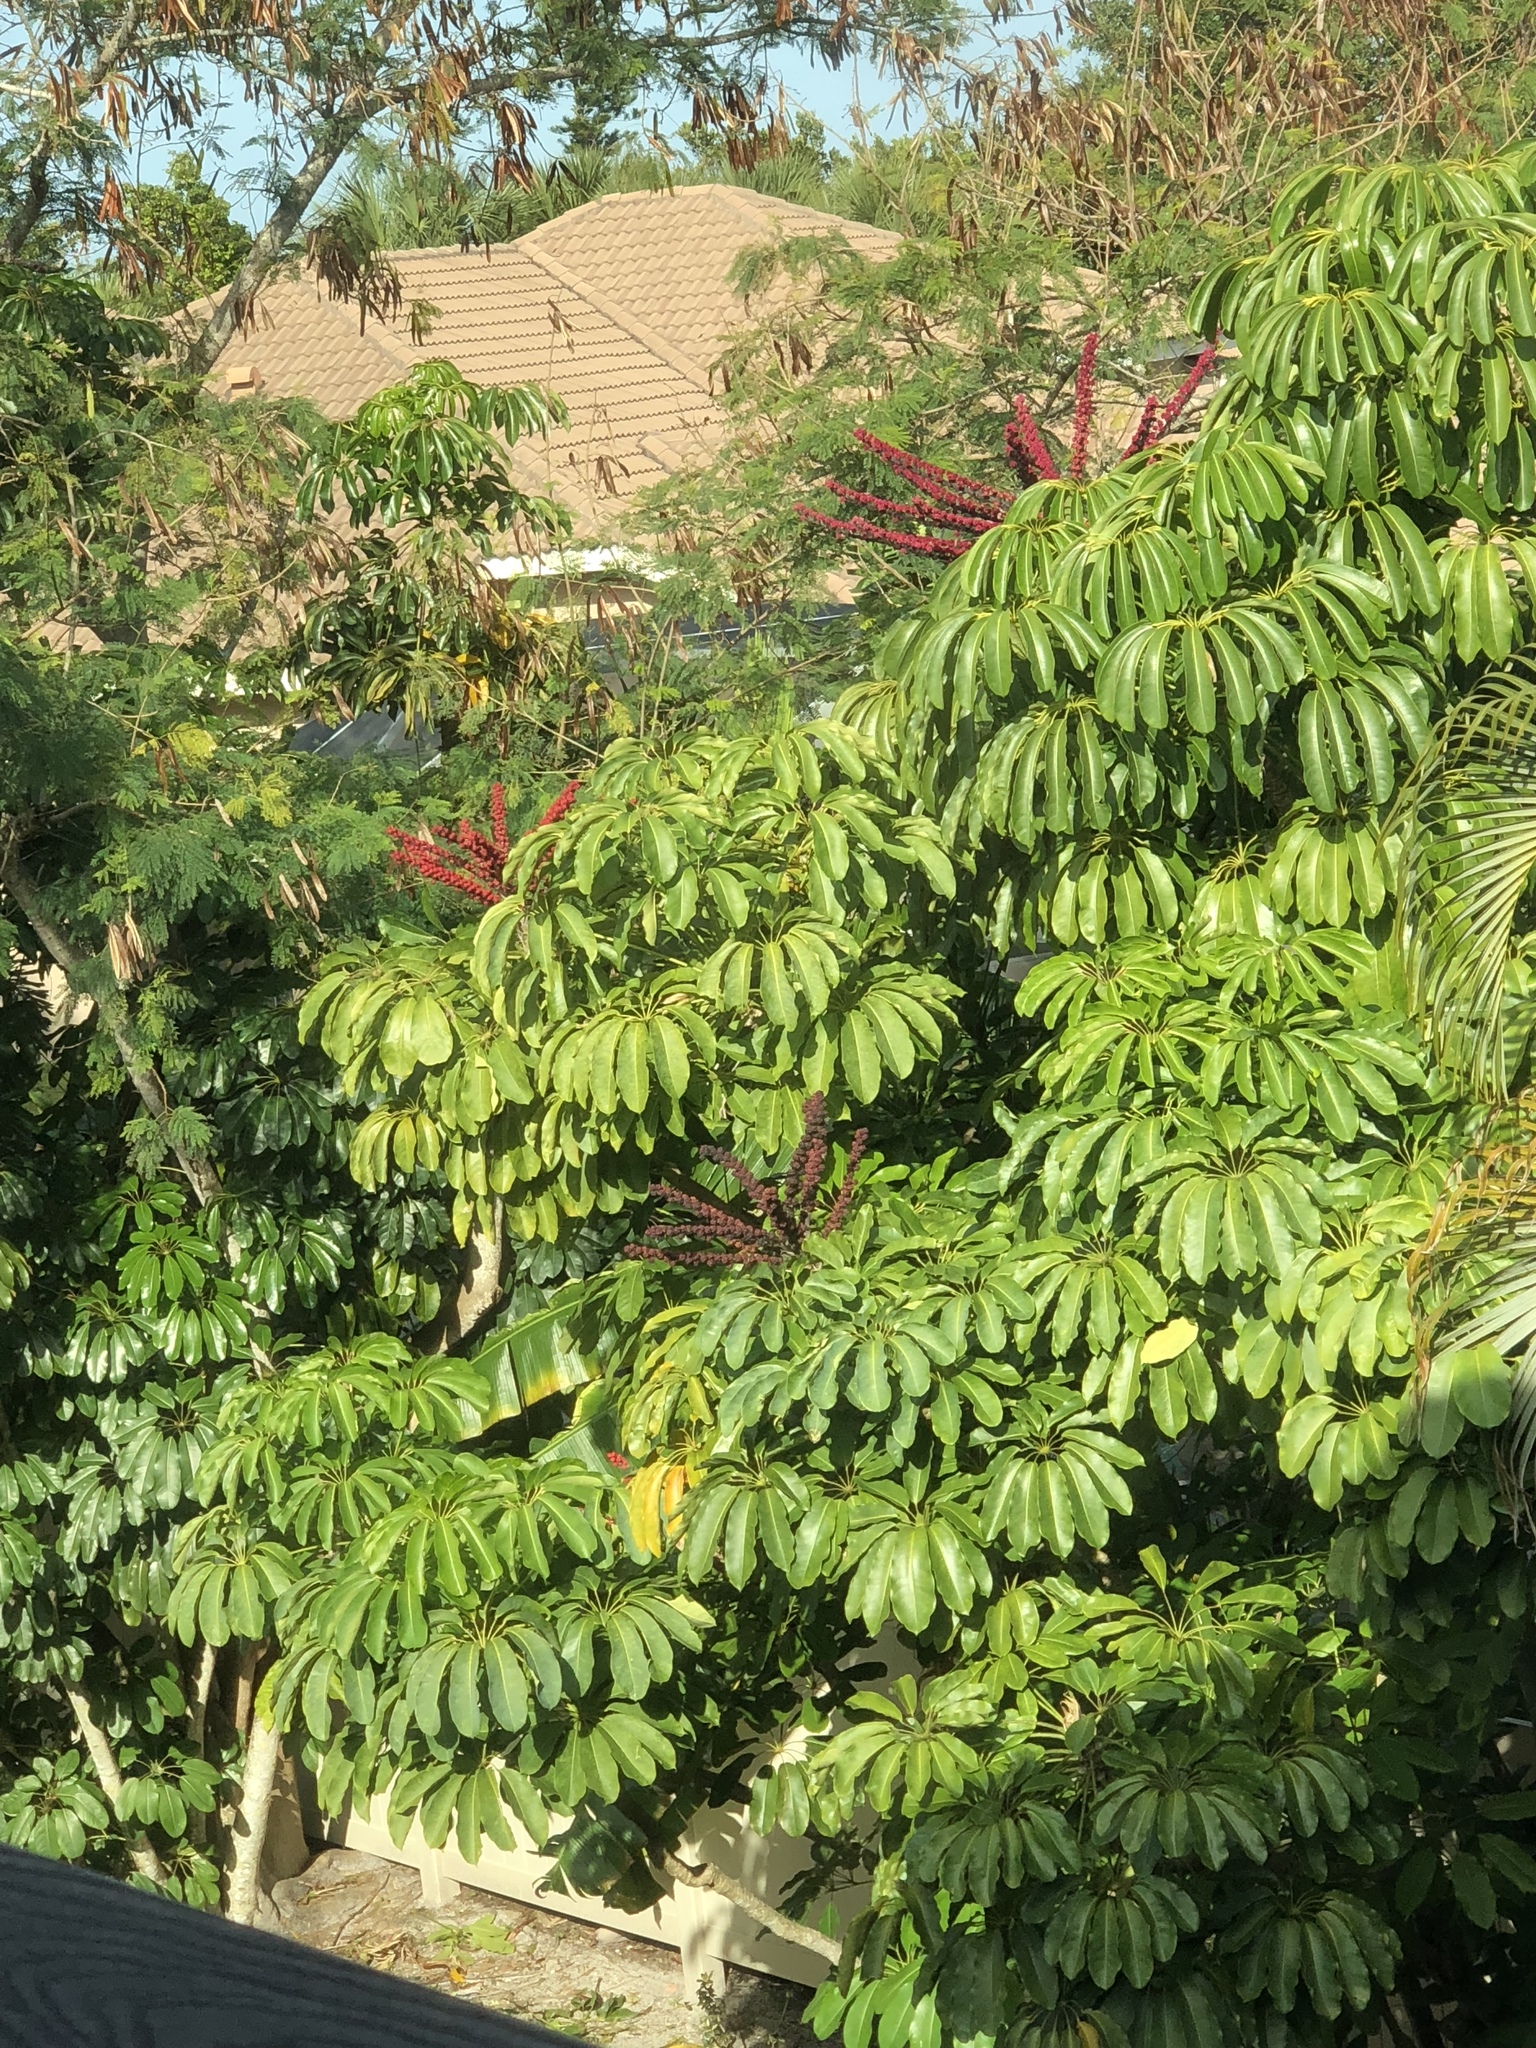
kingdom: Plantae
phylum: Tracheophyta
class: Magnoliopsida
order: Apiales
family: Araliaceae
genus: Heptapleurum
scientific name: Heptapleurum actinophyllum
